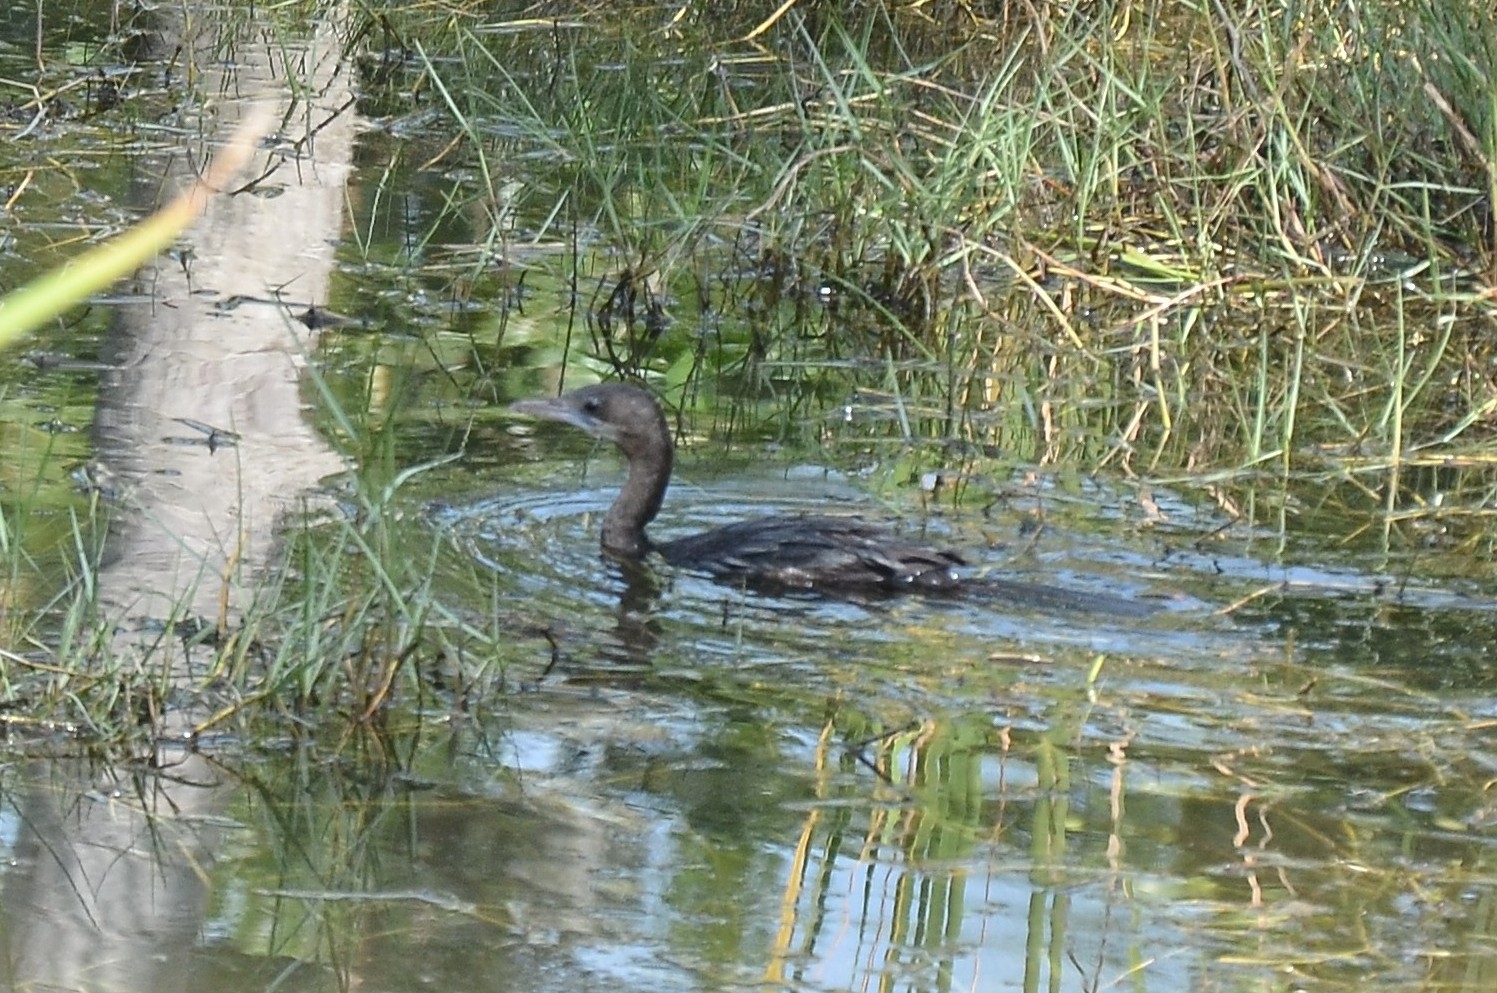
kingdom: Animalia
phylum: Chordata
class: Aves
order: Suliformes
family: Phalacrocoracidae
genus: Microcarbo
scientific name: Microcarbo niger
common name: Little cormorant
